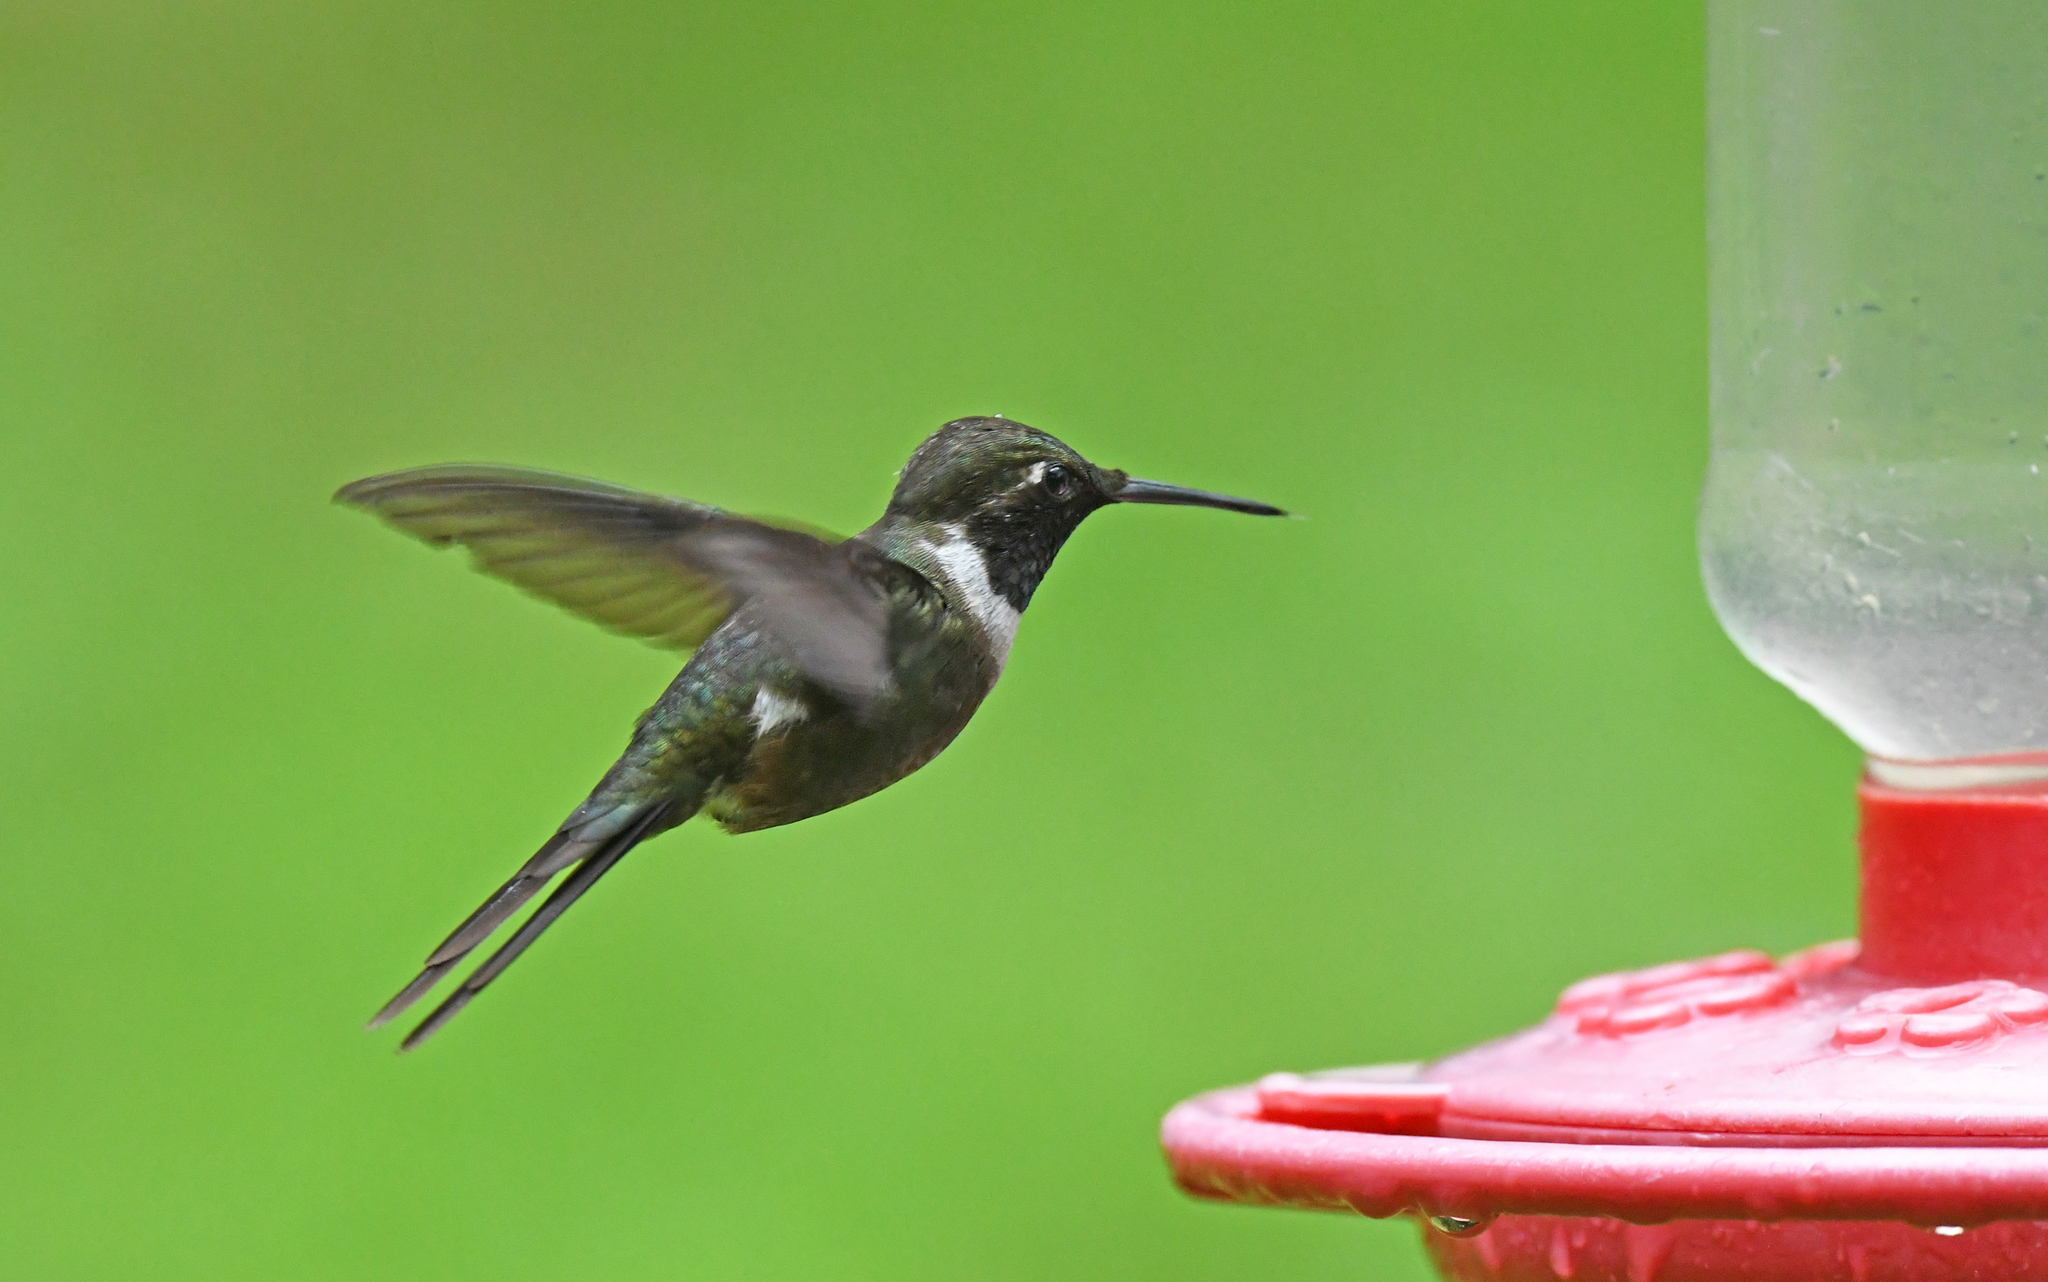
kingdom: Animalia
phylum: Chordata
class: Aves
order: Apodiformes
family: Trochilidae
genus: Calliphlox
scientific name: Calliphlox mitchellii
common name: Purple-throated woodstar
